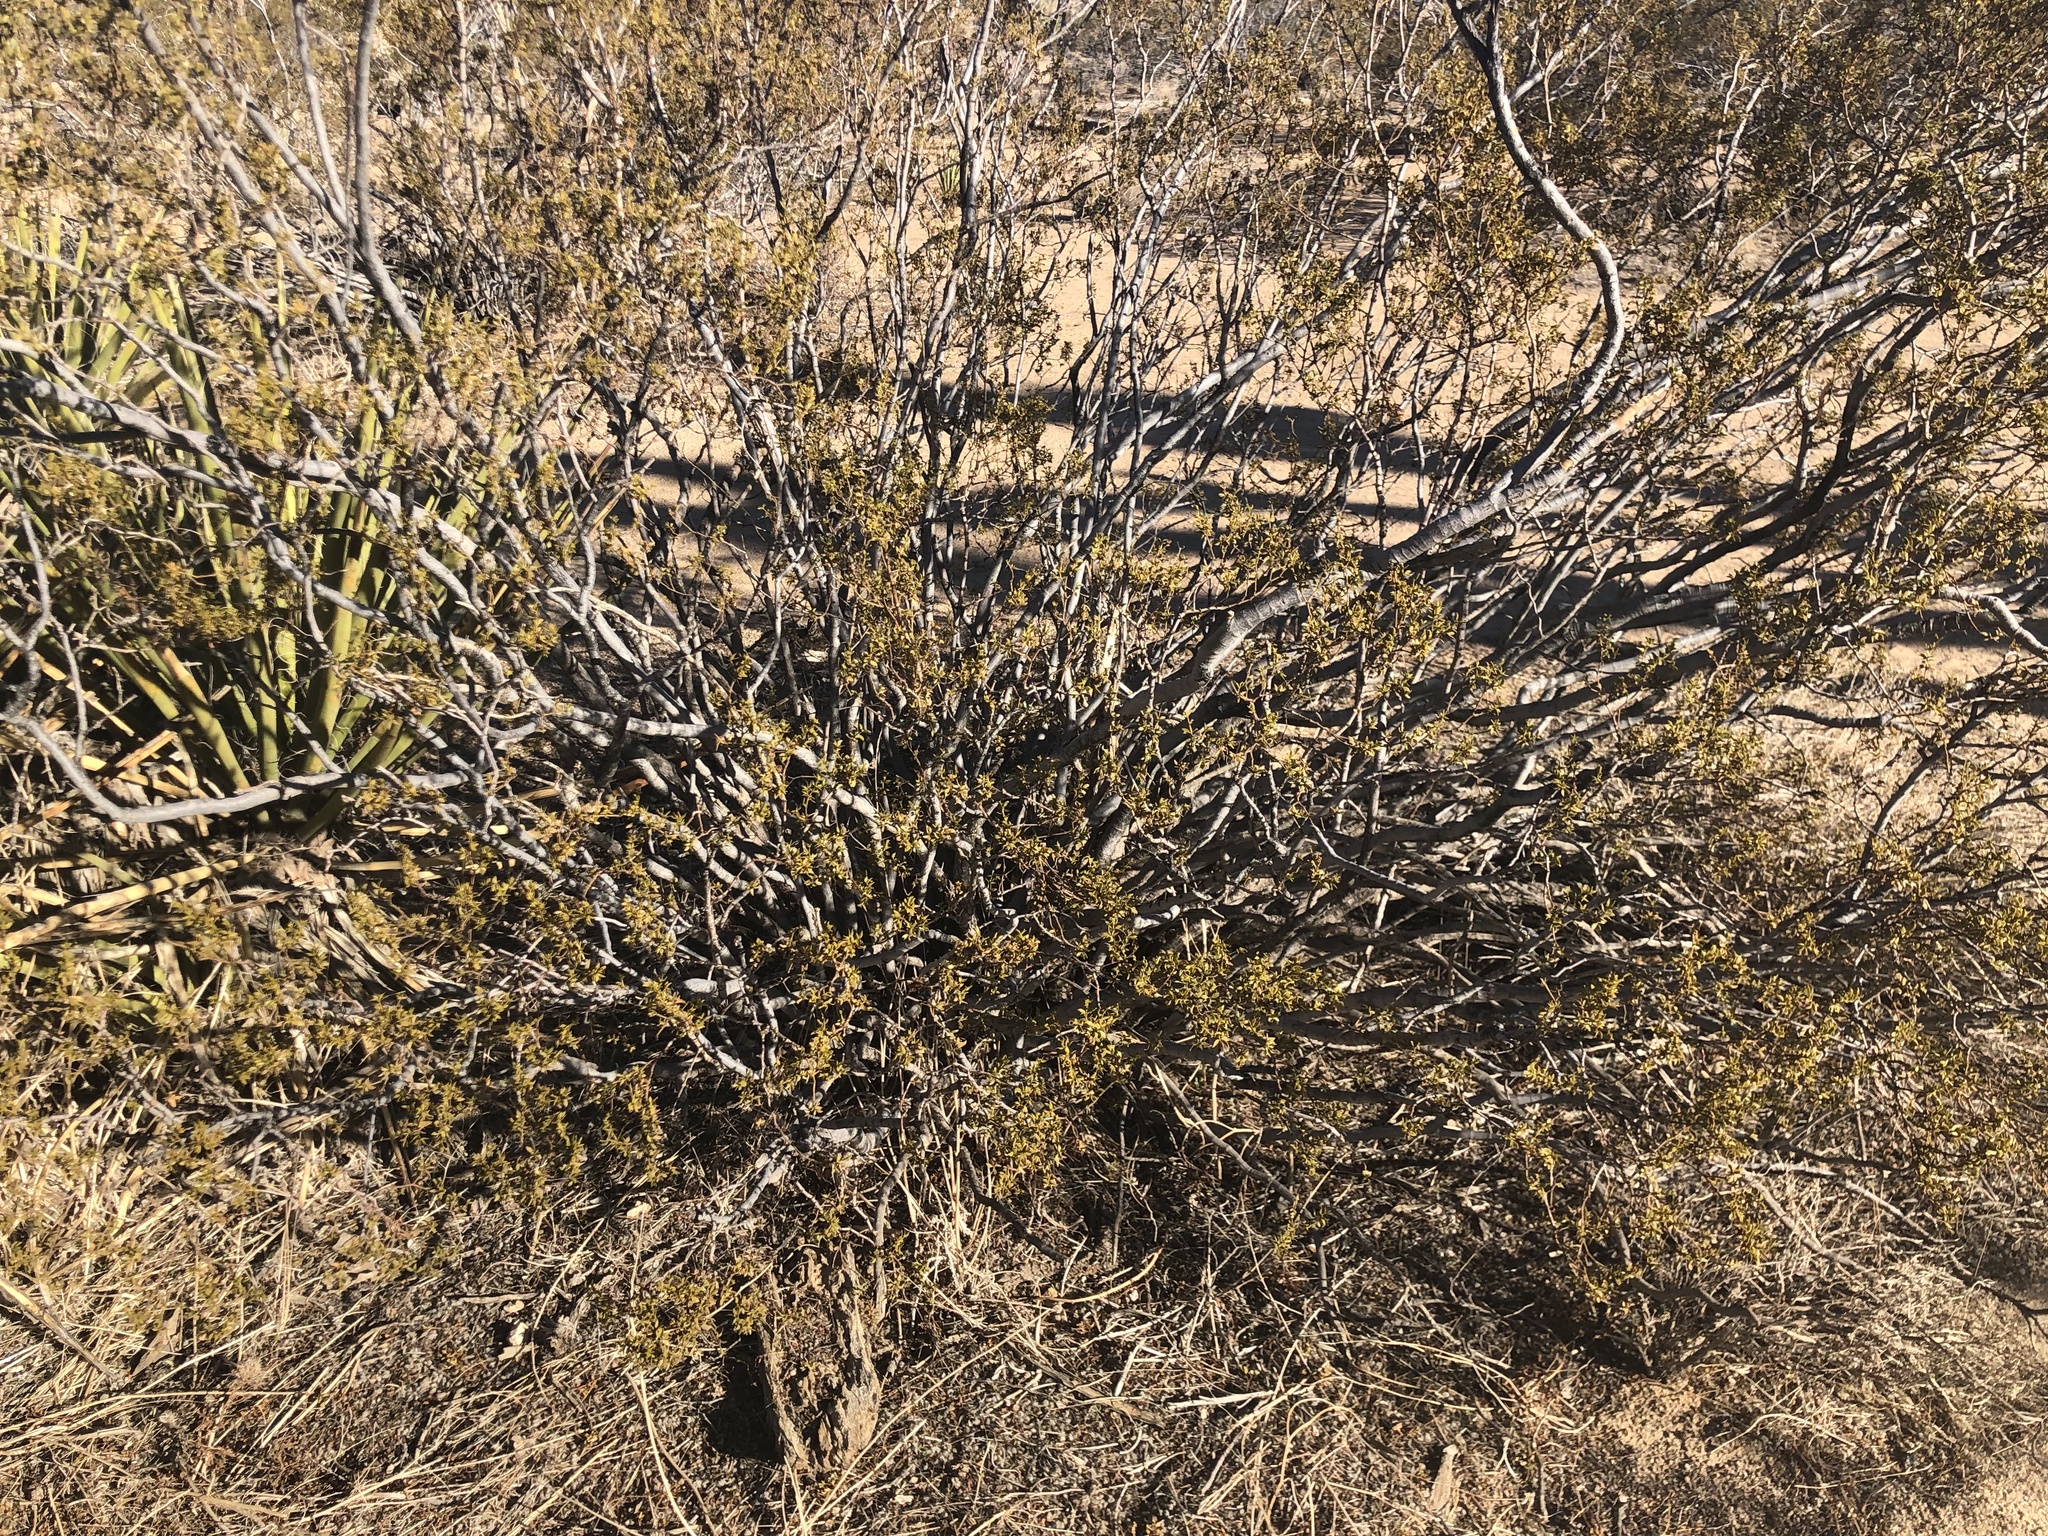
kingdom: Plantae
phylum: Tracheophyta
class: Magnoliopsida
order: Zygophyllales
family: Zygophyllaceae
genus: Larrea
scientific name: Larrea tridentata
